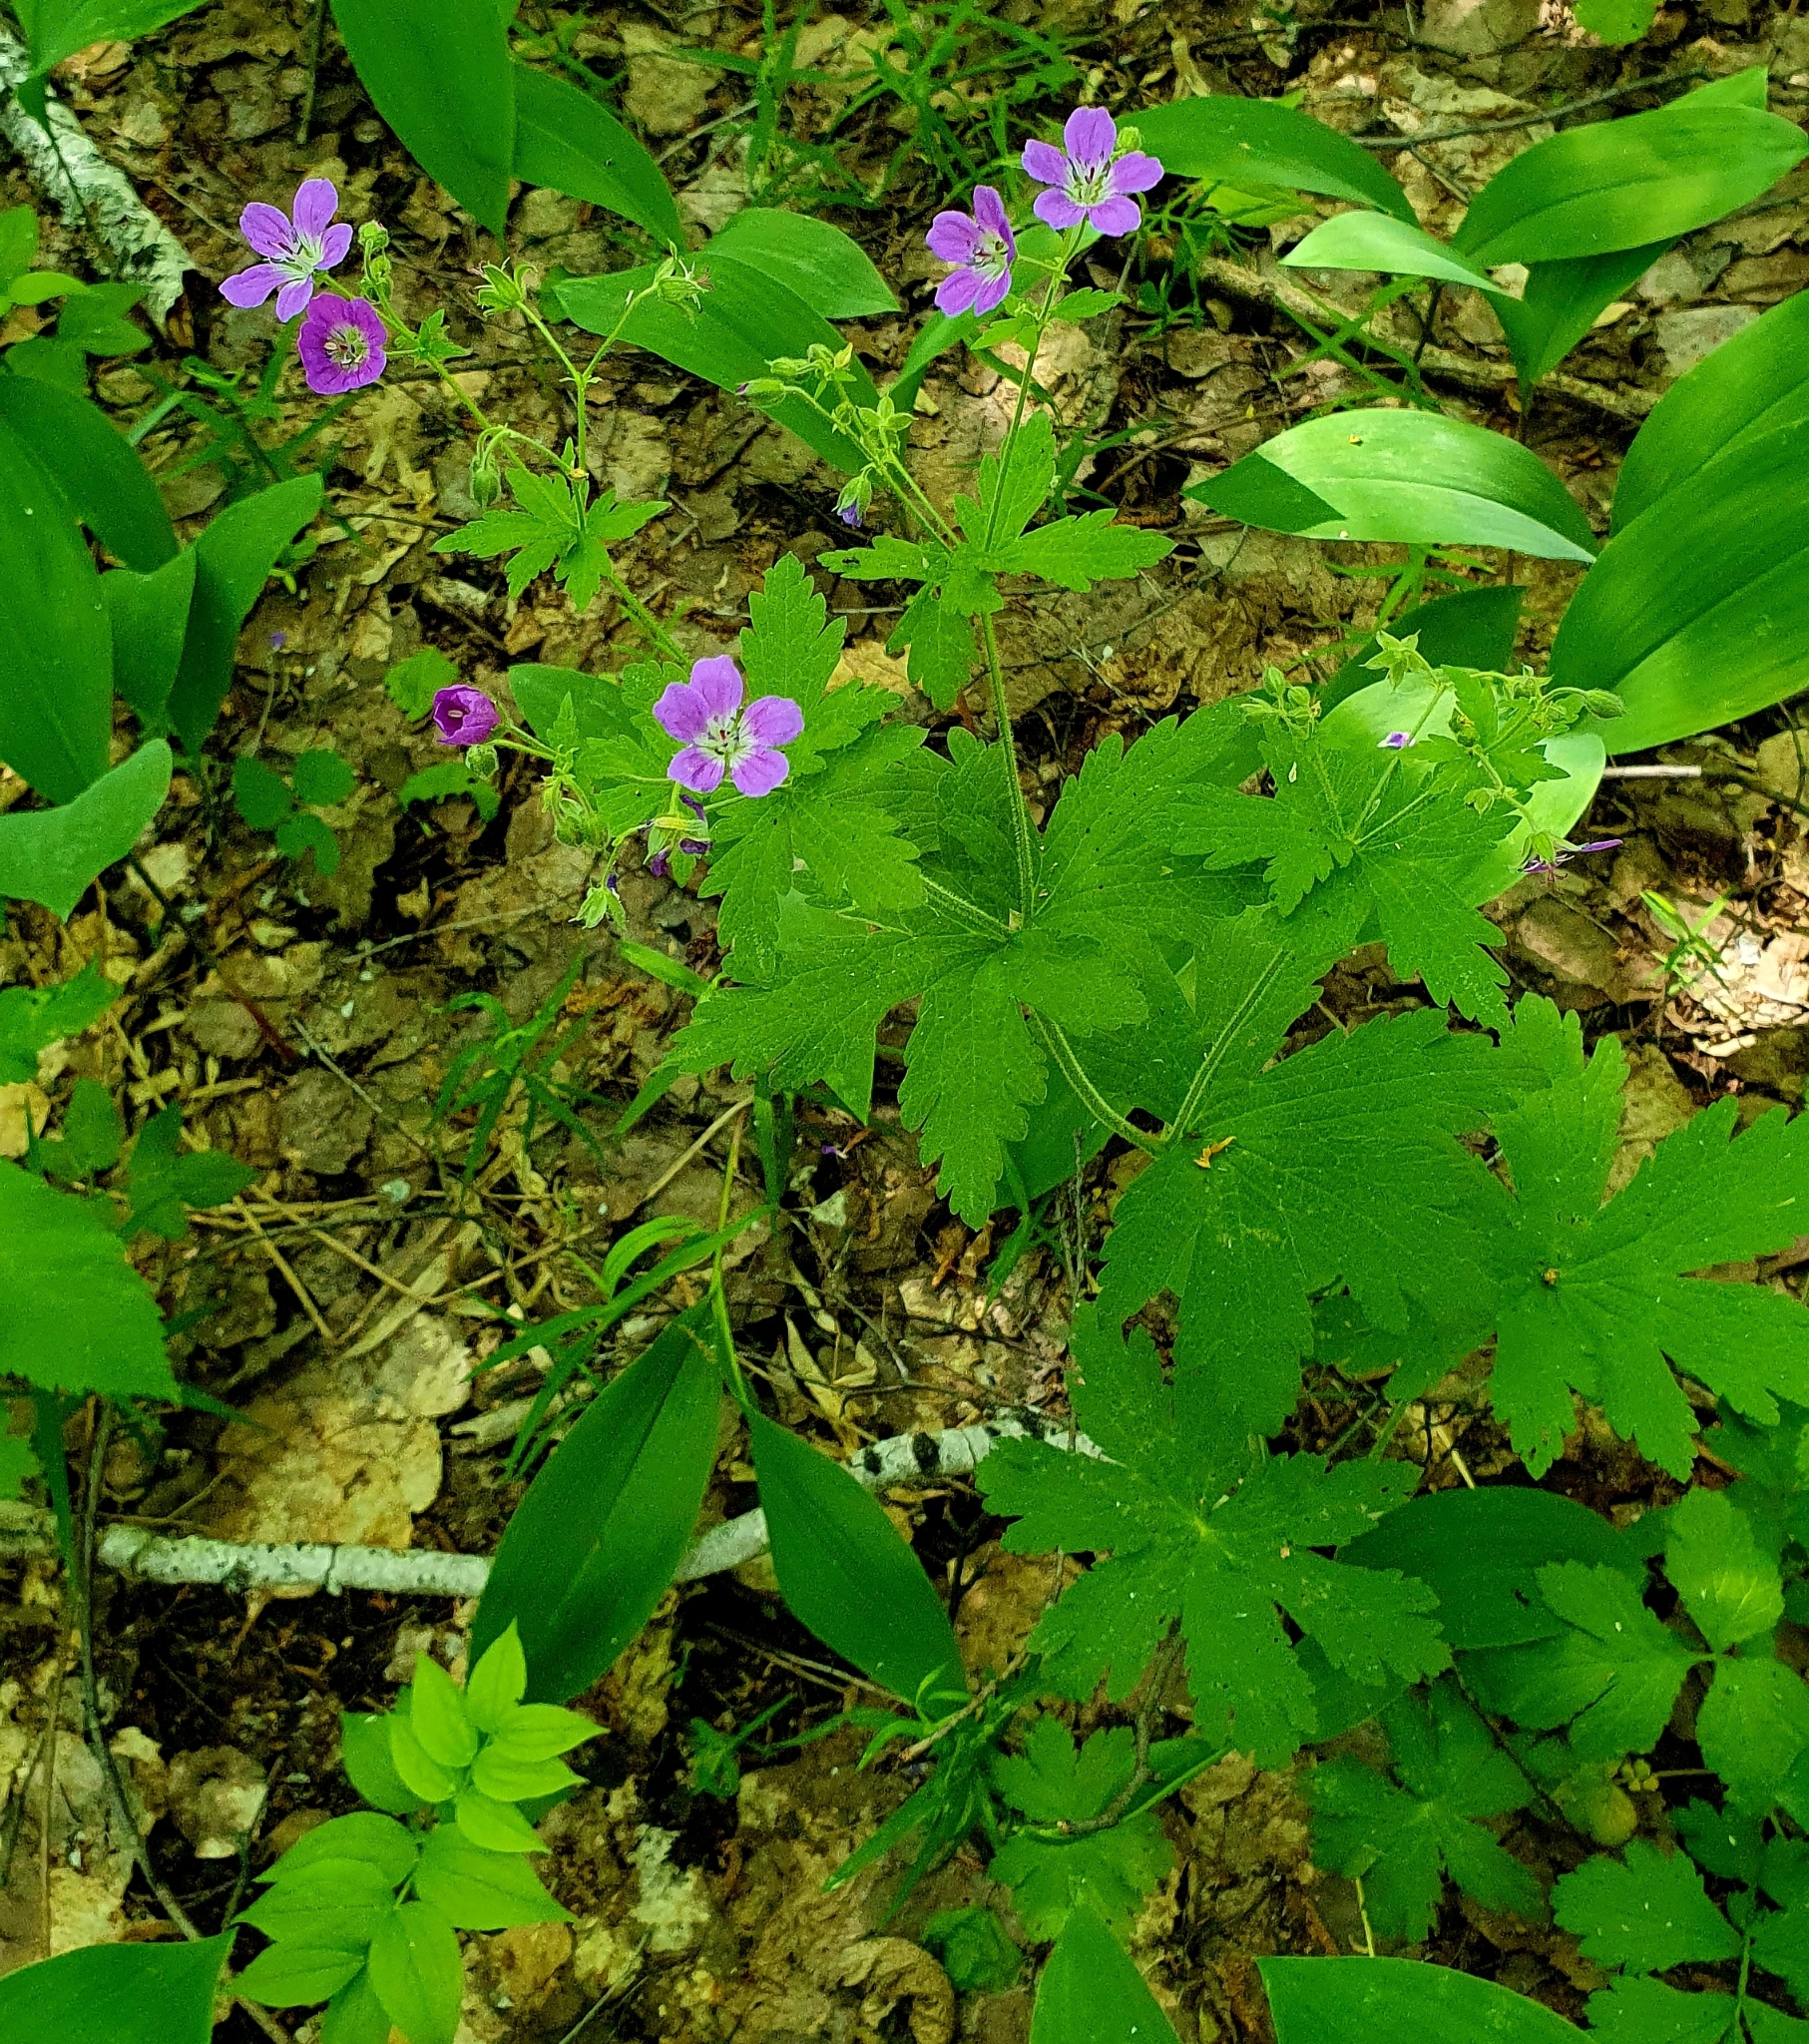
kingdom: Plantae
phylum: Tracheophyta
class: Magnoliopsida
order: Geraniales
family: Geraniaceae
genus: Geranium
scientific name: Geranium sylvaticum
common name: Wood crane's-bill
